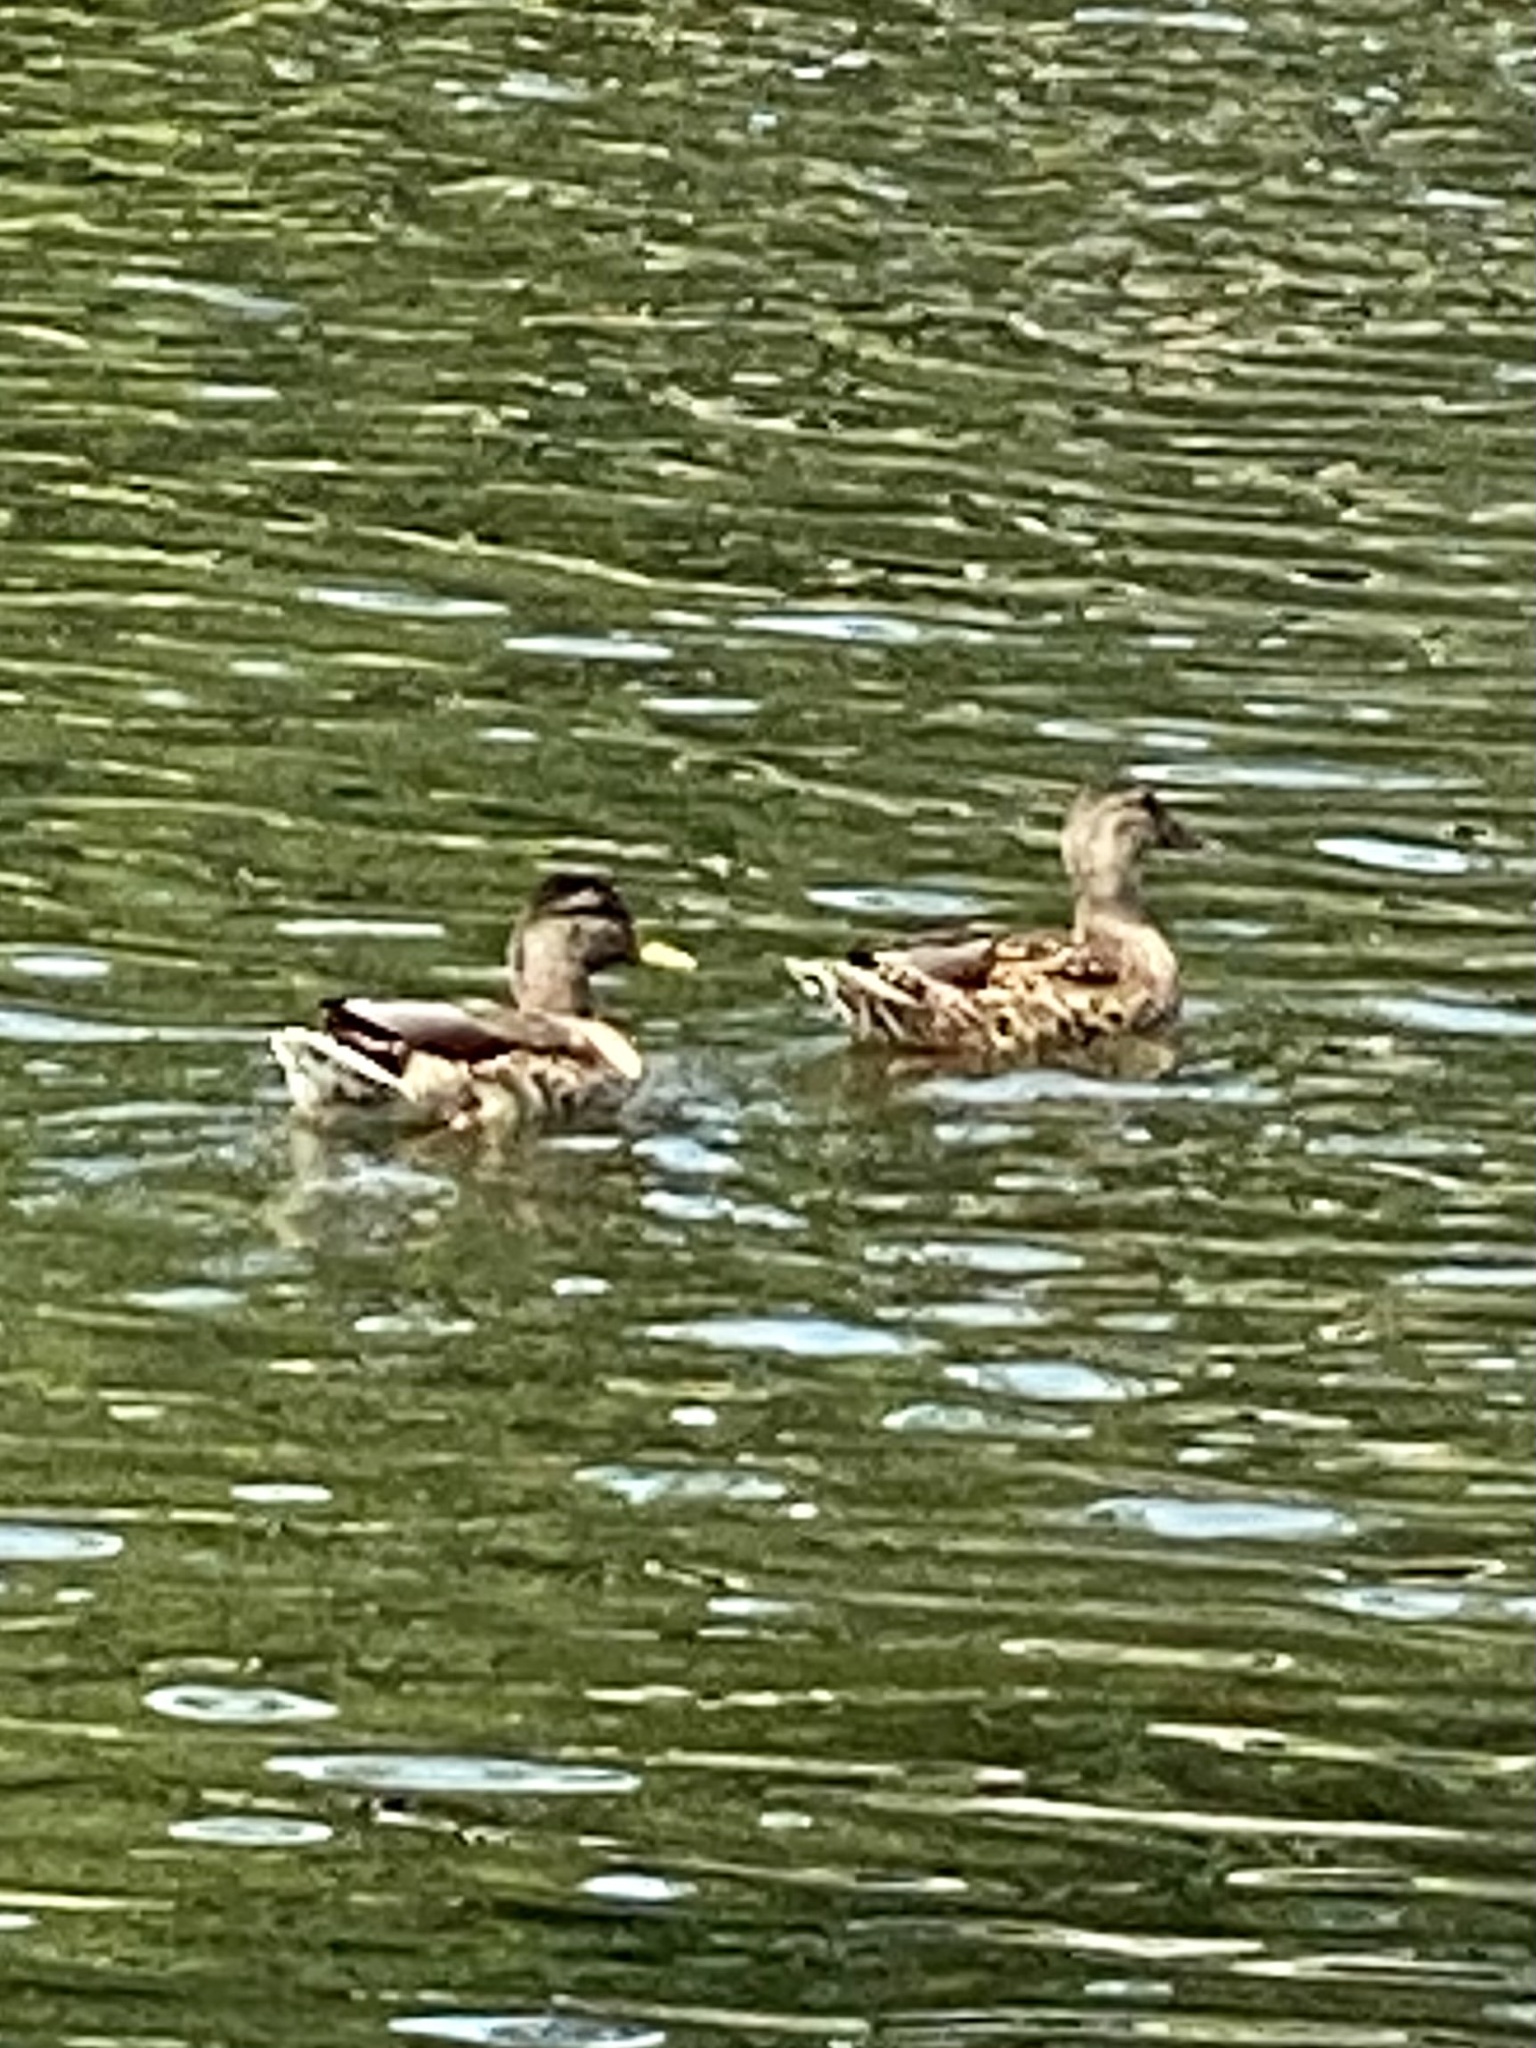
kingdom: Animalia
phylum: Chordata
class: Aves
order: Anseriformes
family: Anatidae
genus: Anas
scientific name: Anas platyrhynchos
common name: Mallard
